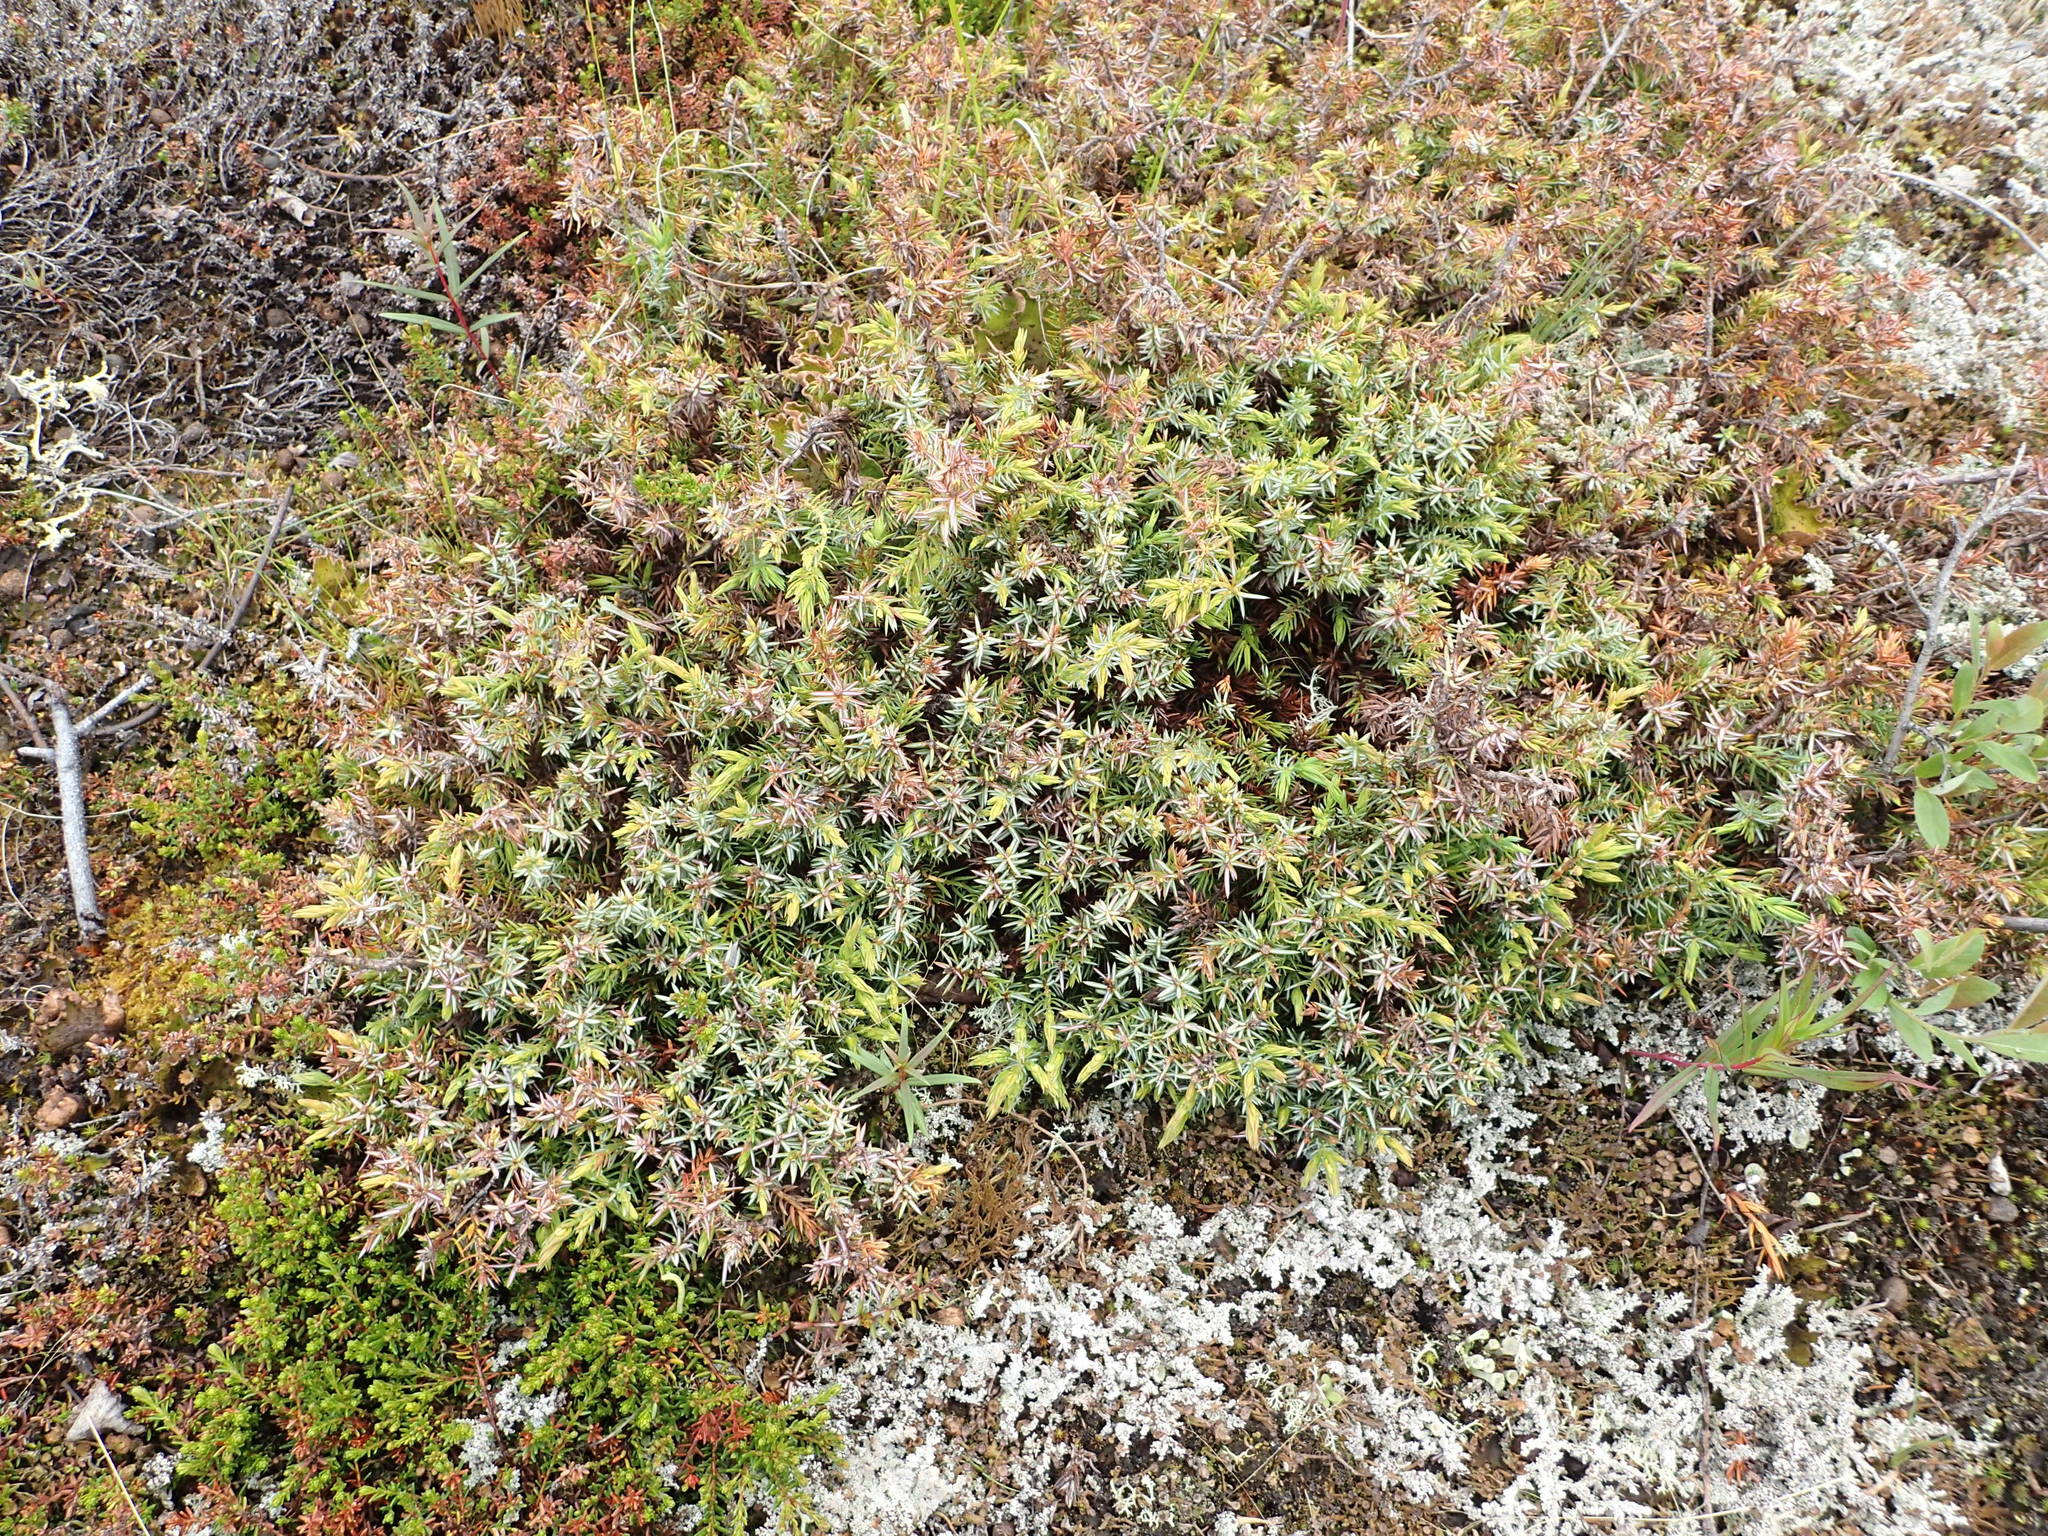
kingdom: Plantae
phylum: Tracheophyta
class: Pinopsida
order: Pinales
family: Cupressaceae
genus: Juniperus
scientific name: Juniperus communis
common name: Common juniper
